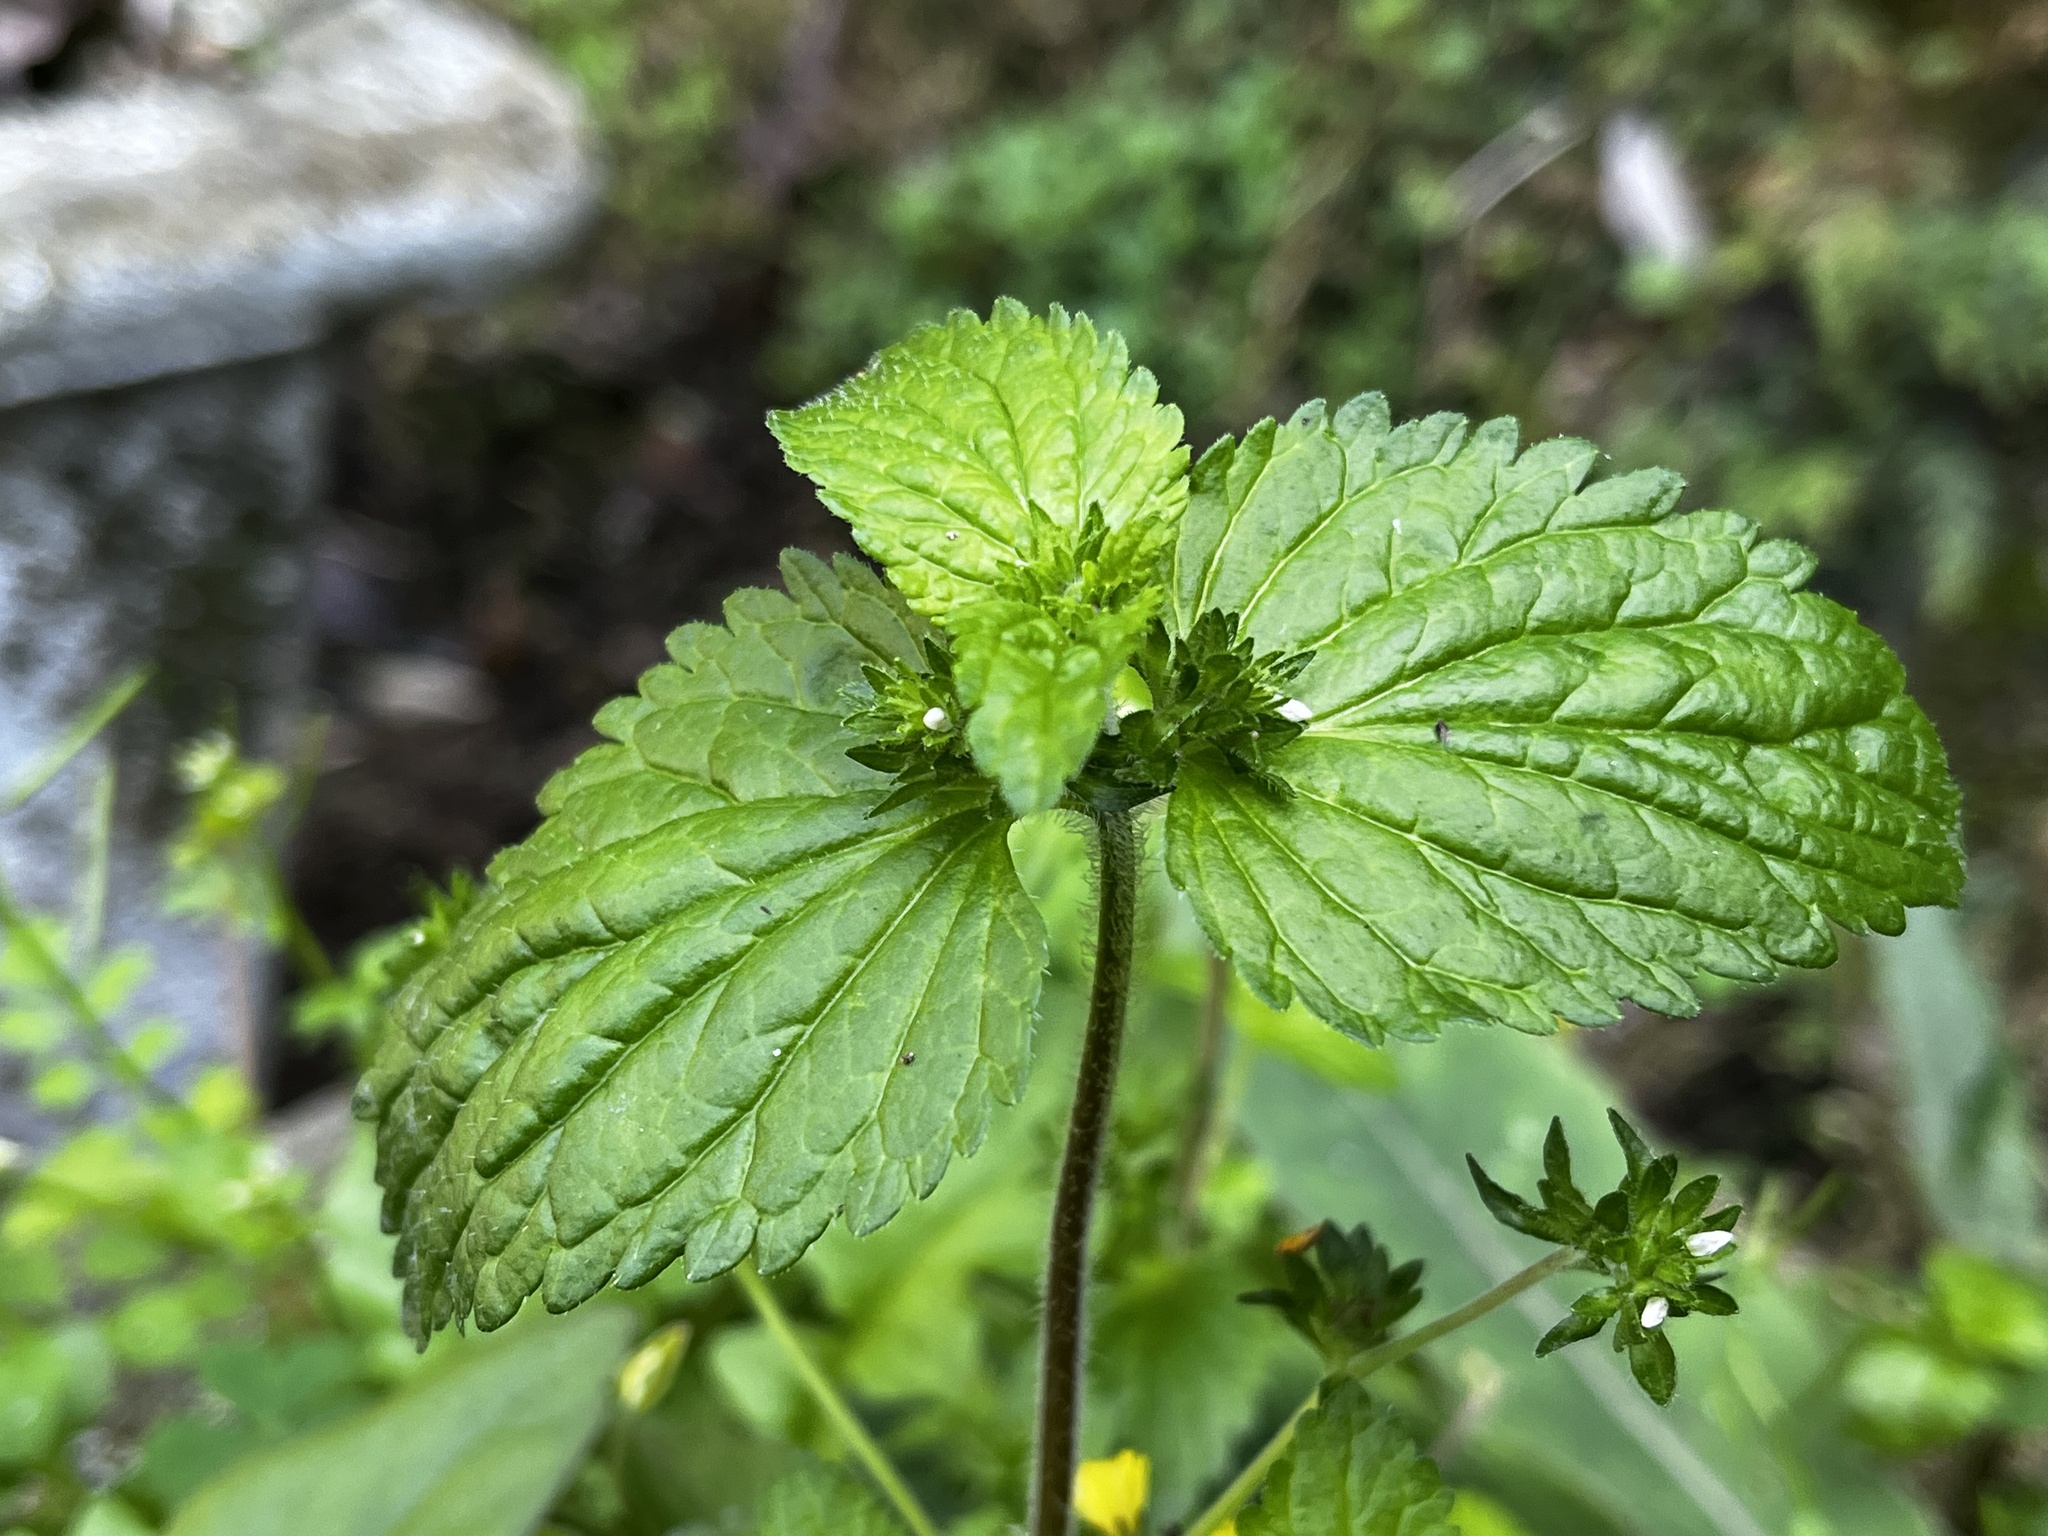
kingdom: Plantae
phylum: Tracheophyta
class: Magnoliopsida
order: Lamiales
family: Plantaginaceae
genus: Veronica
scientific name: Veronica javanica
